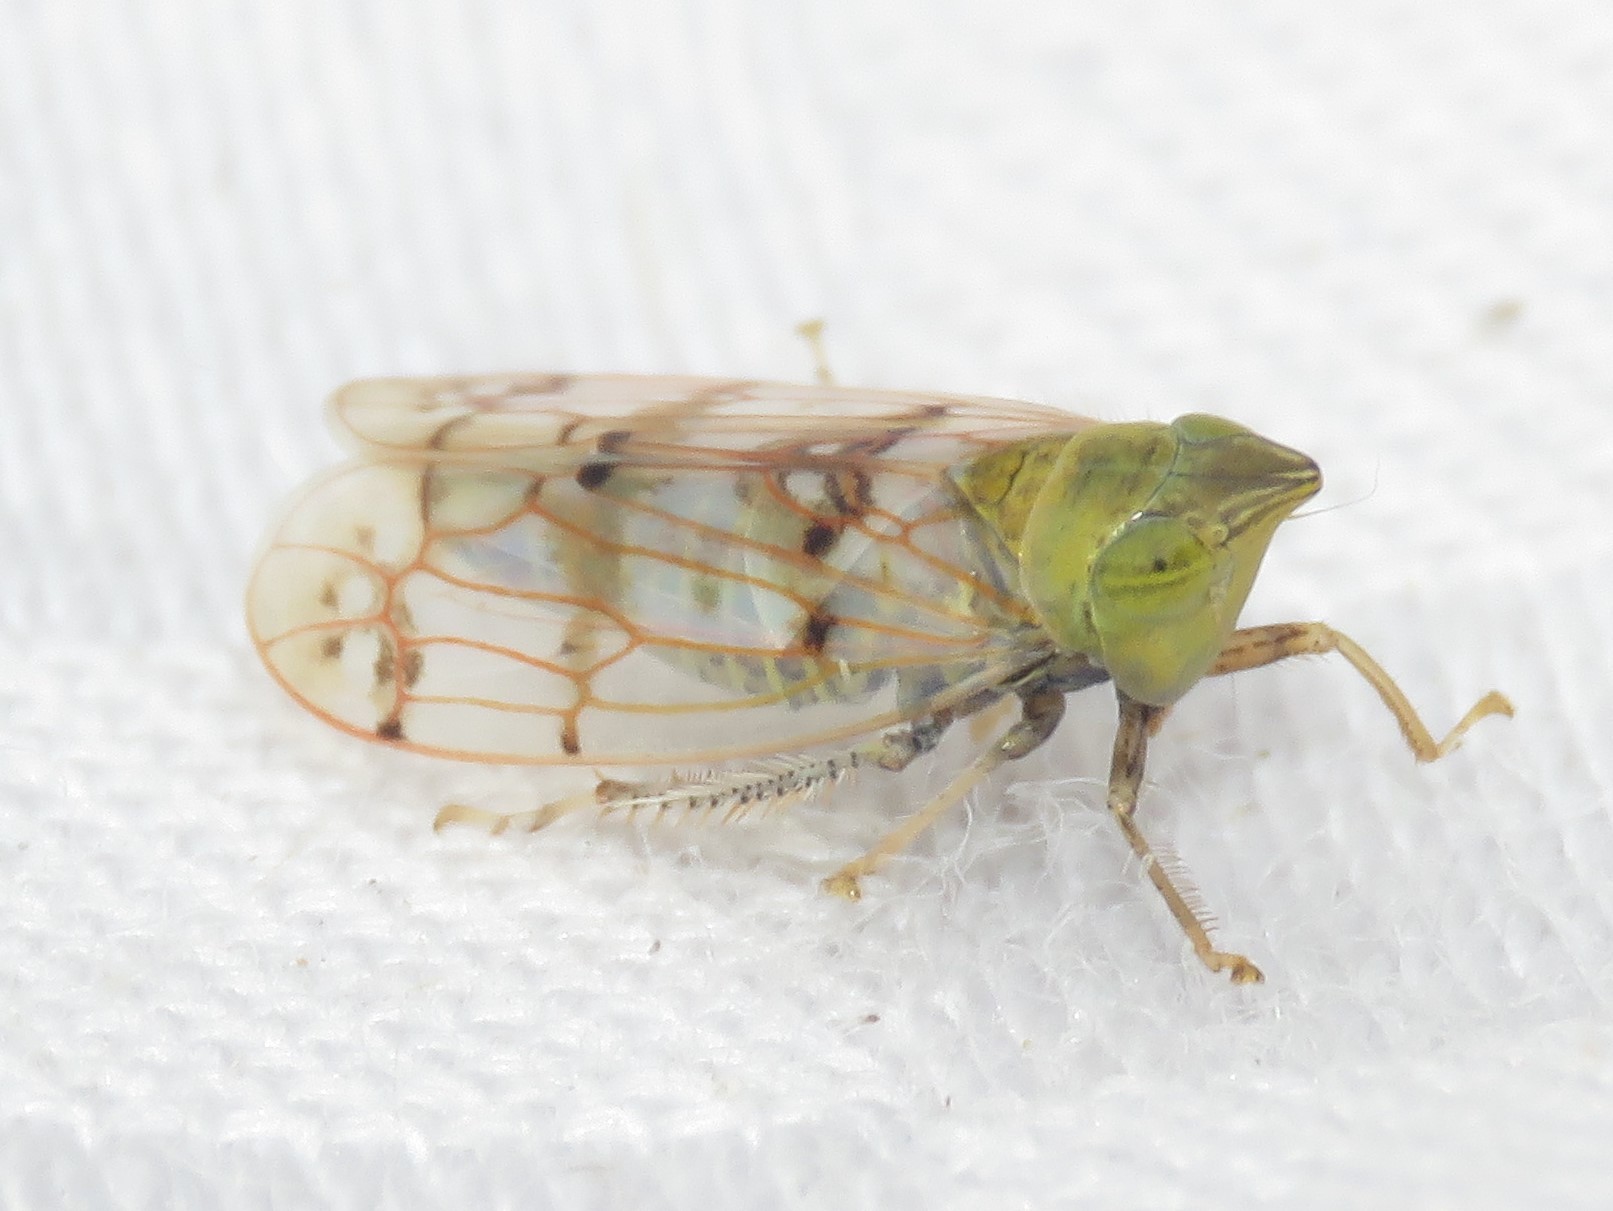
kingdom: Animalia
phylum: Arthropoda
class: Insecta
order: Hemiptera
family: Cicadellidae
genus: Japananus
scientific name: Japananus hyalinus
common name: The japanese maple leafhopper
